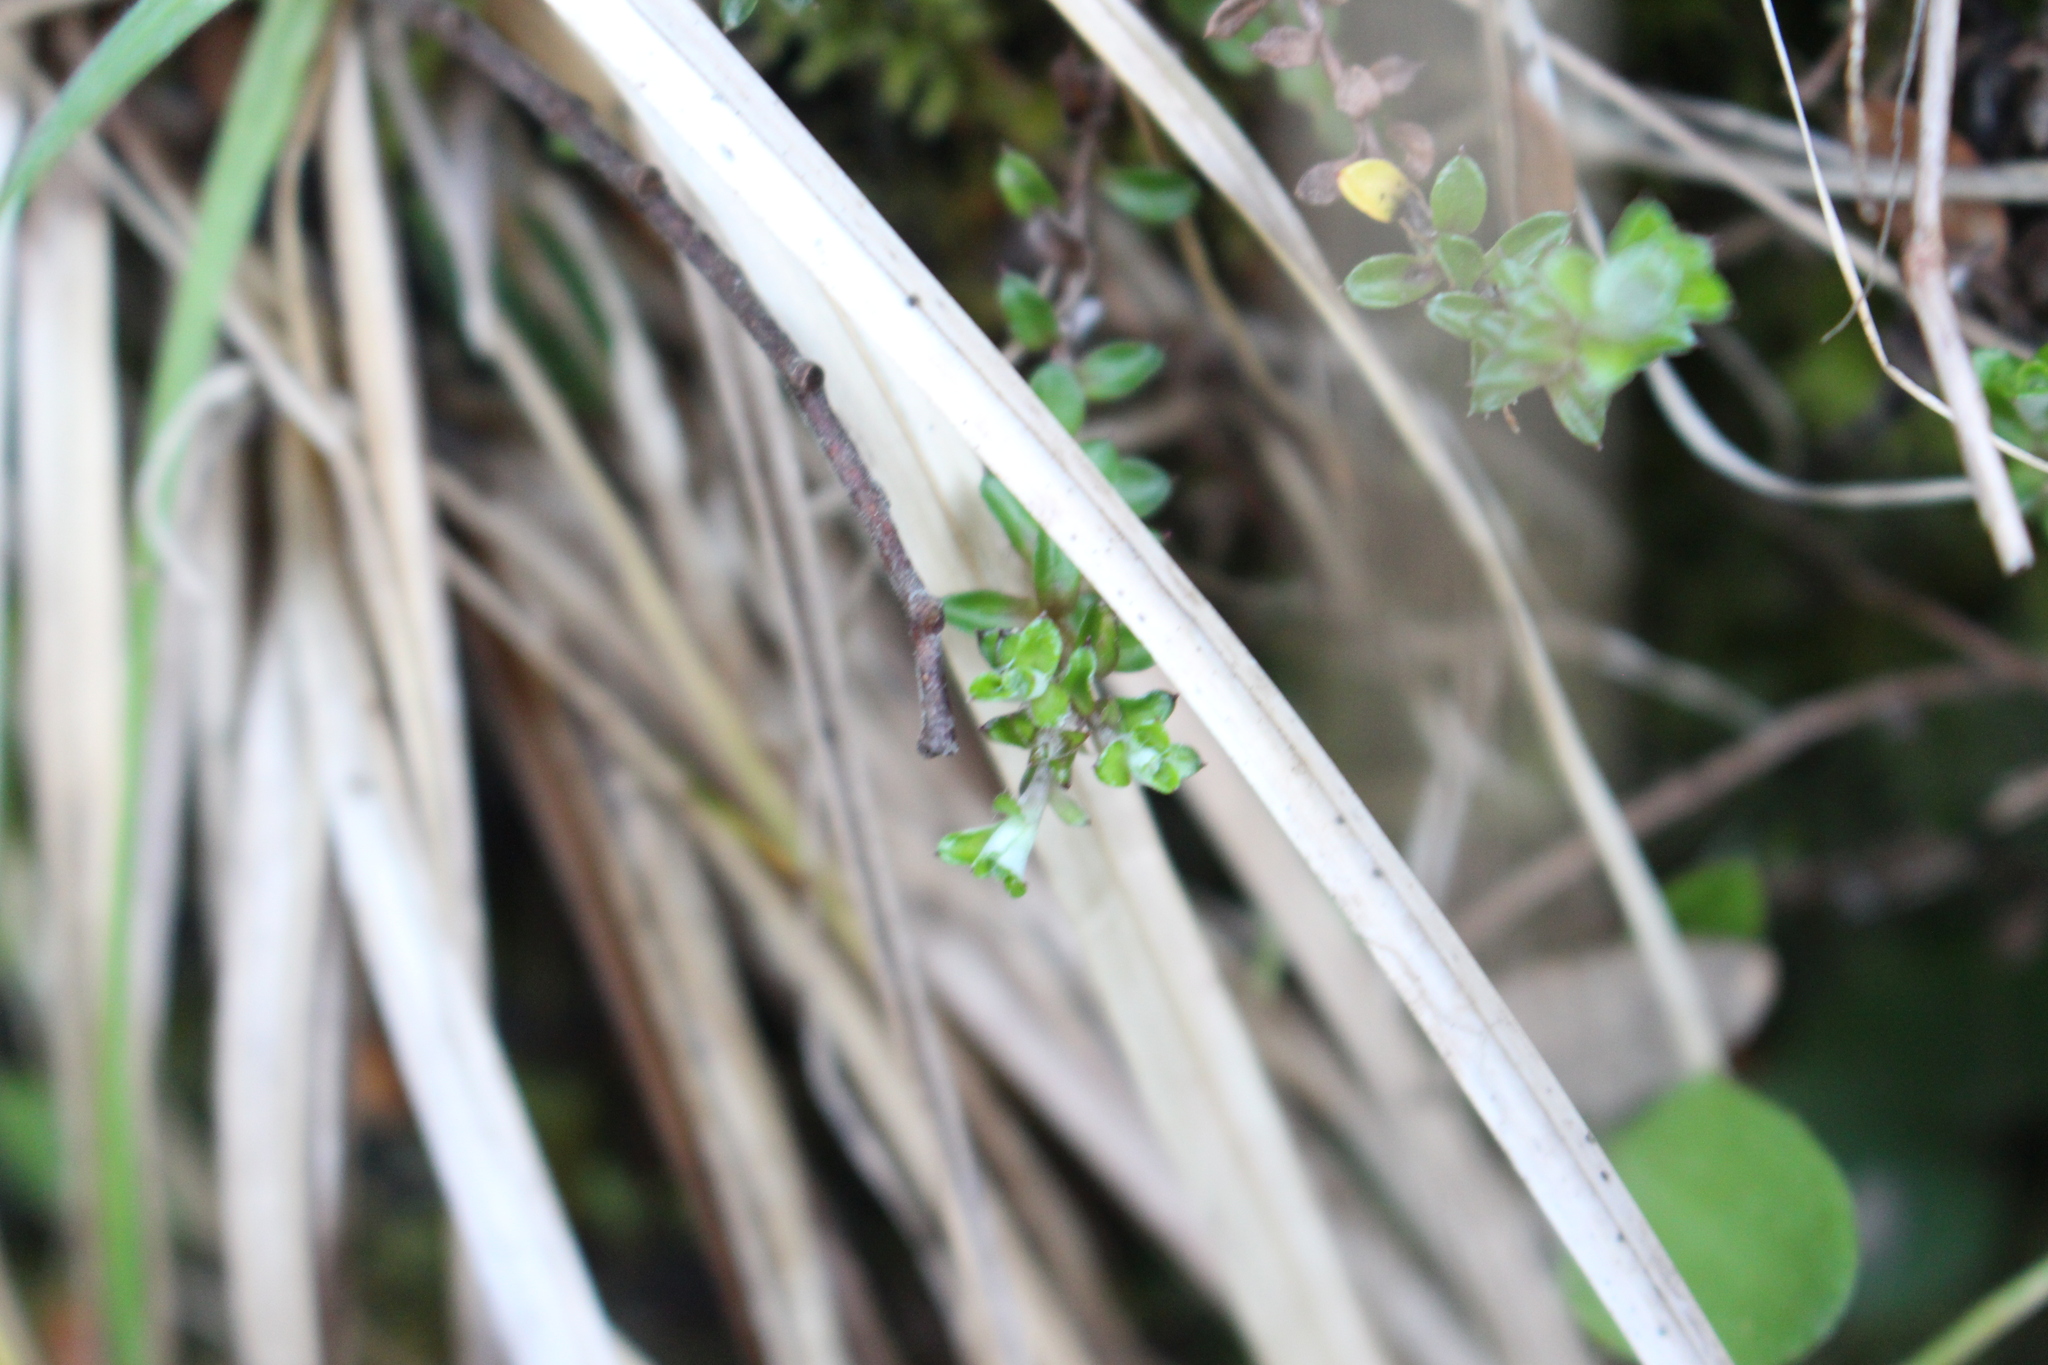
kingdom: Plantae
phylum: Tracheophyta
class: Magnoliopsida
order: Asterales
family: Asteraceae
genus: Anaphalioides
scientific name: Anaphalioides bellidioides
